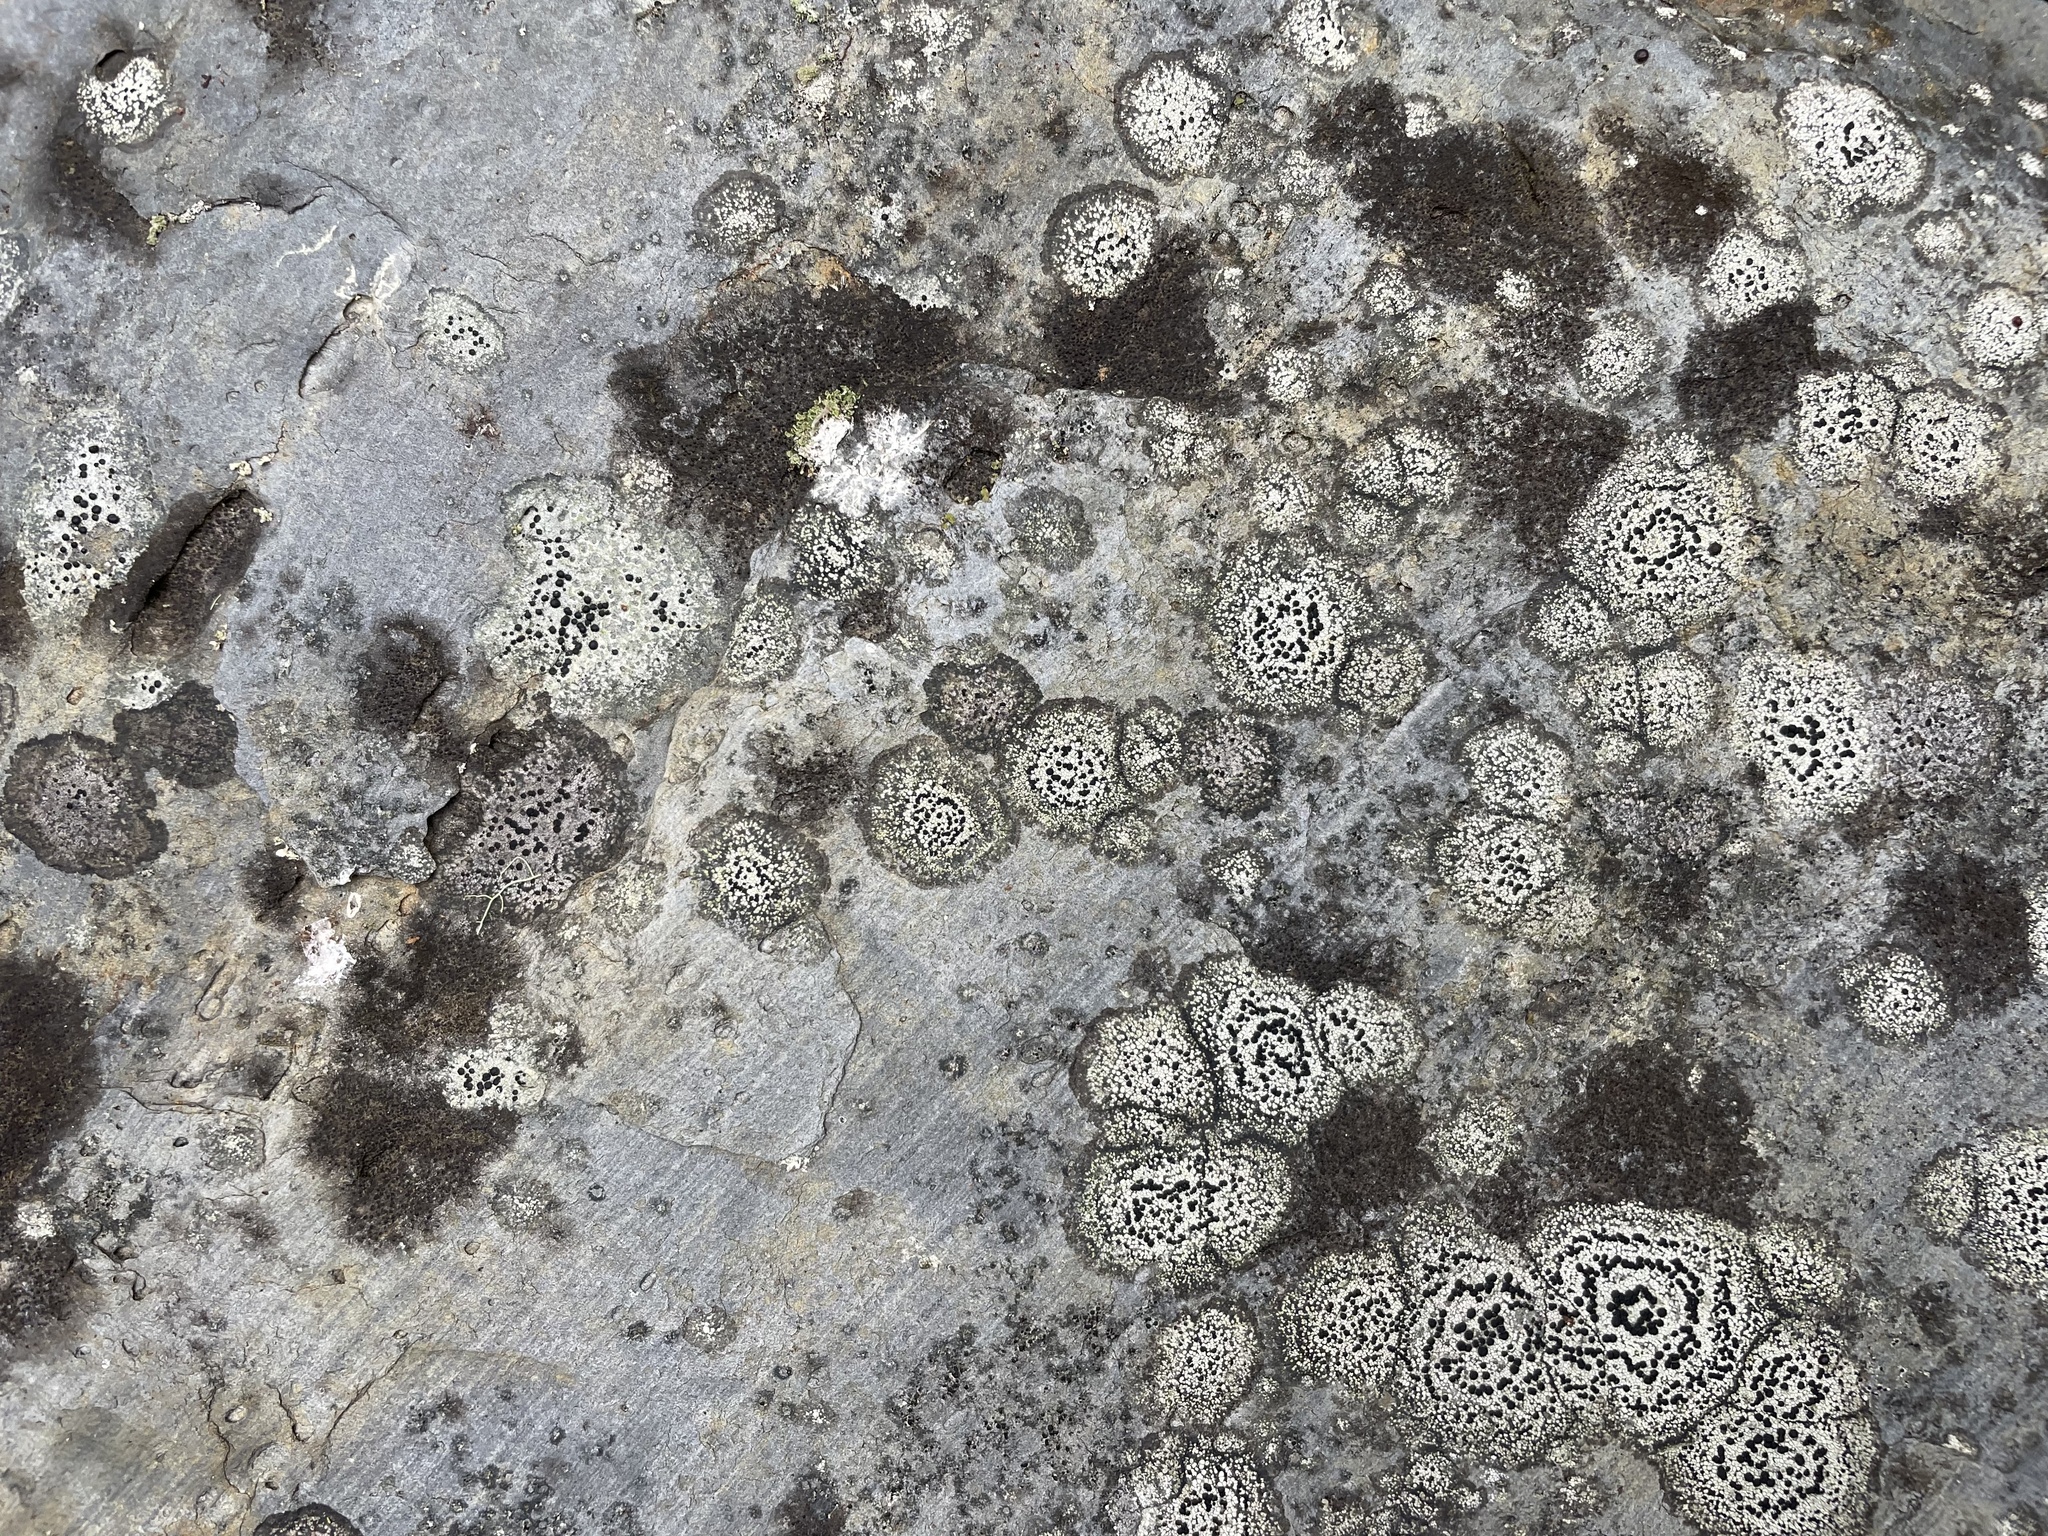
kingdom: Fungi
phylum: Ascomycota
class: Lecanoromycetes
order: Lecideales
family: Lecideaceae
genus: Porpidia
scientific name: Porpidia crustulata
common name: Concentric boulder lichen
